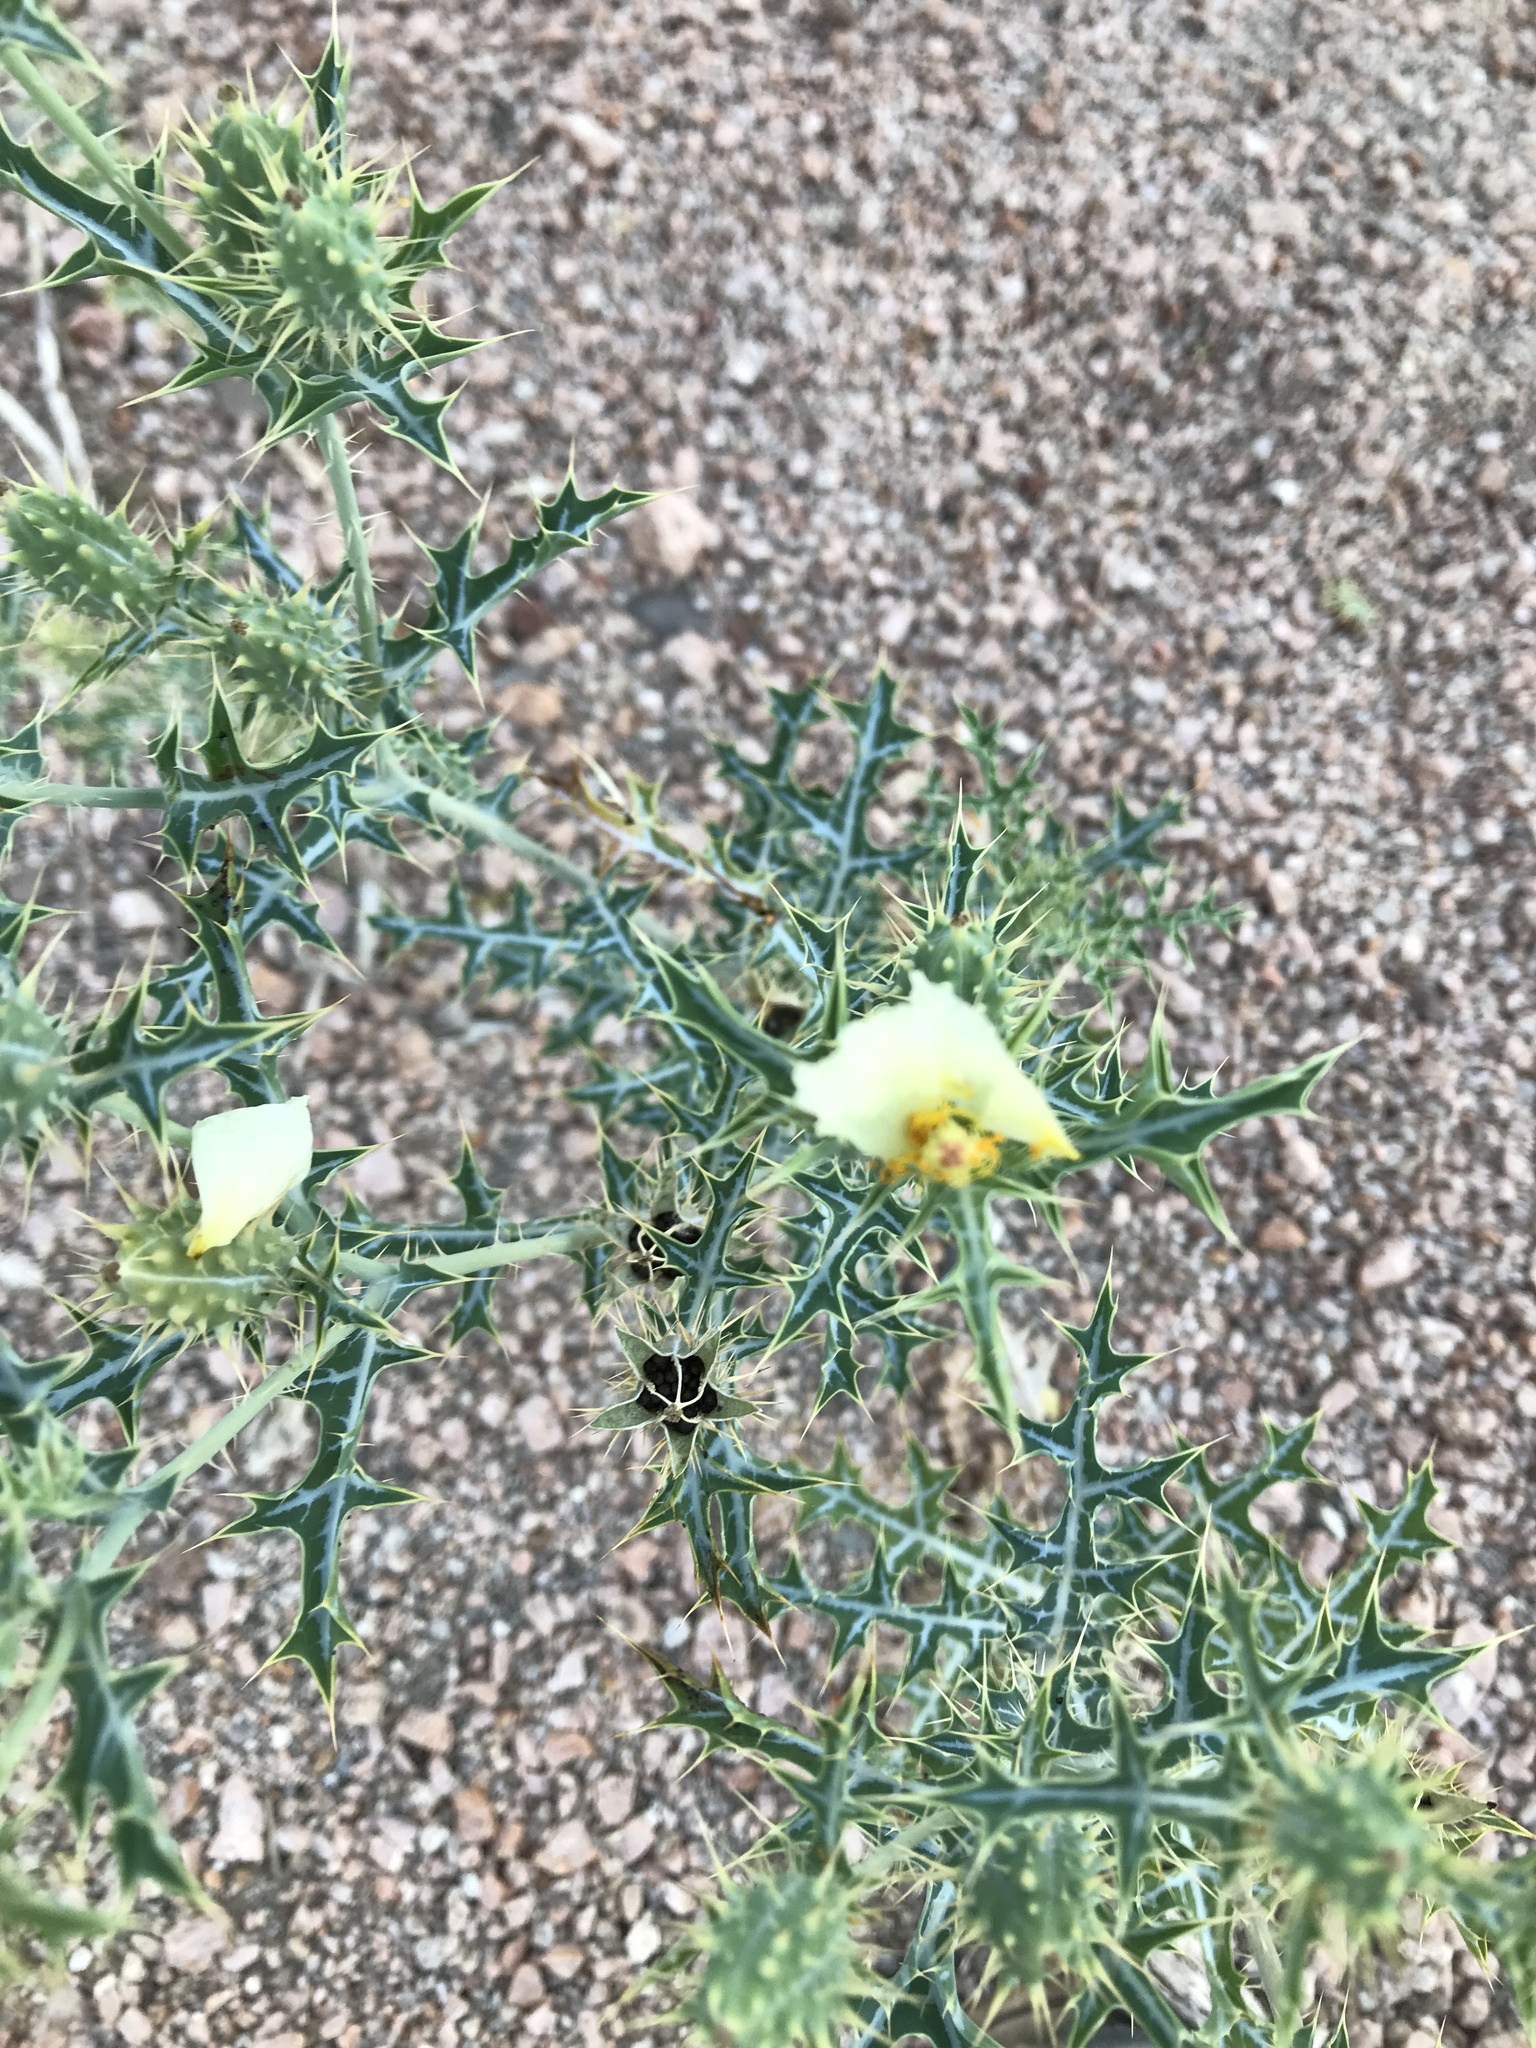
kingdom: Plantae
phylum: Tracheophyta
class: Magnoliopsida
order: Ranunculales
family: Papaveraceae
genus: Argemone
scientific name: Argemone ochroleuca
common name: White-flower mexican-poppy
